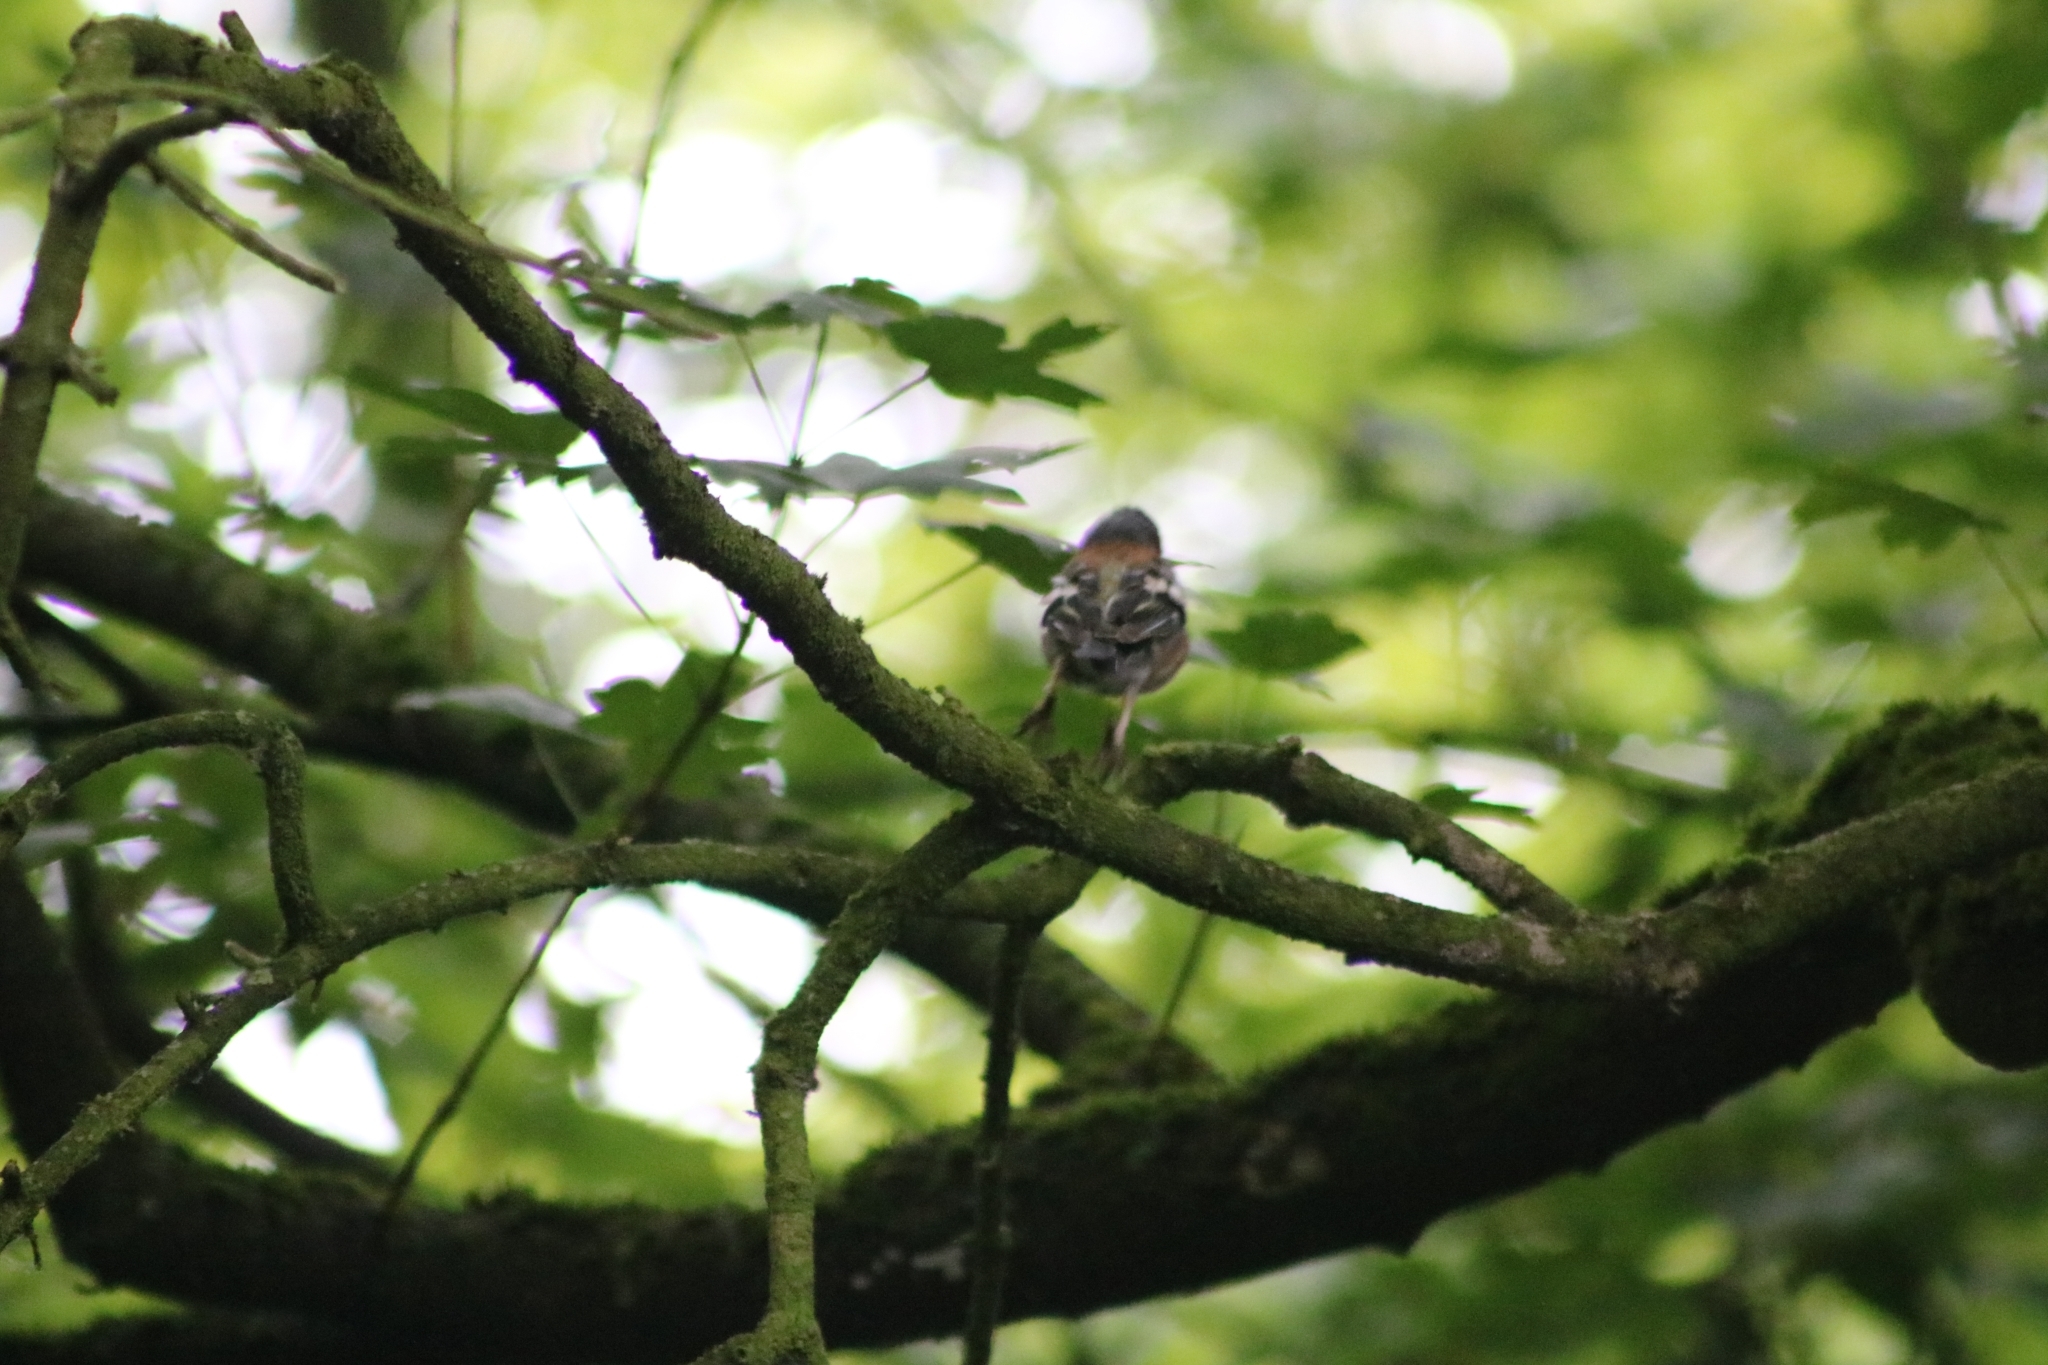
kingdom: Animalia
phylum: Chordata
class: Aves
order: Passeriformes
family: Fringillidae
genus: Fringilla
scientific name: Fringilla coelebs
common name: Common chaffinch
